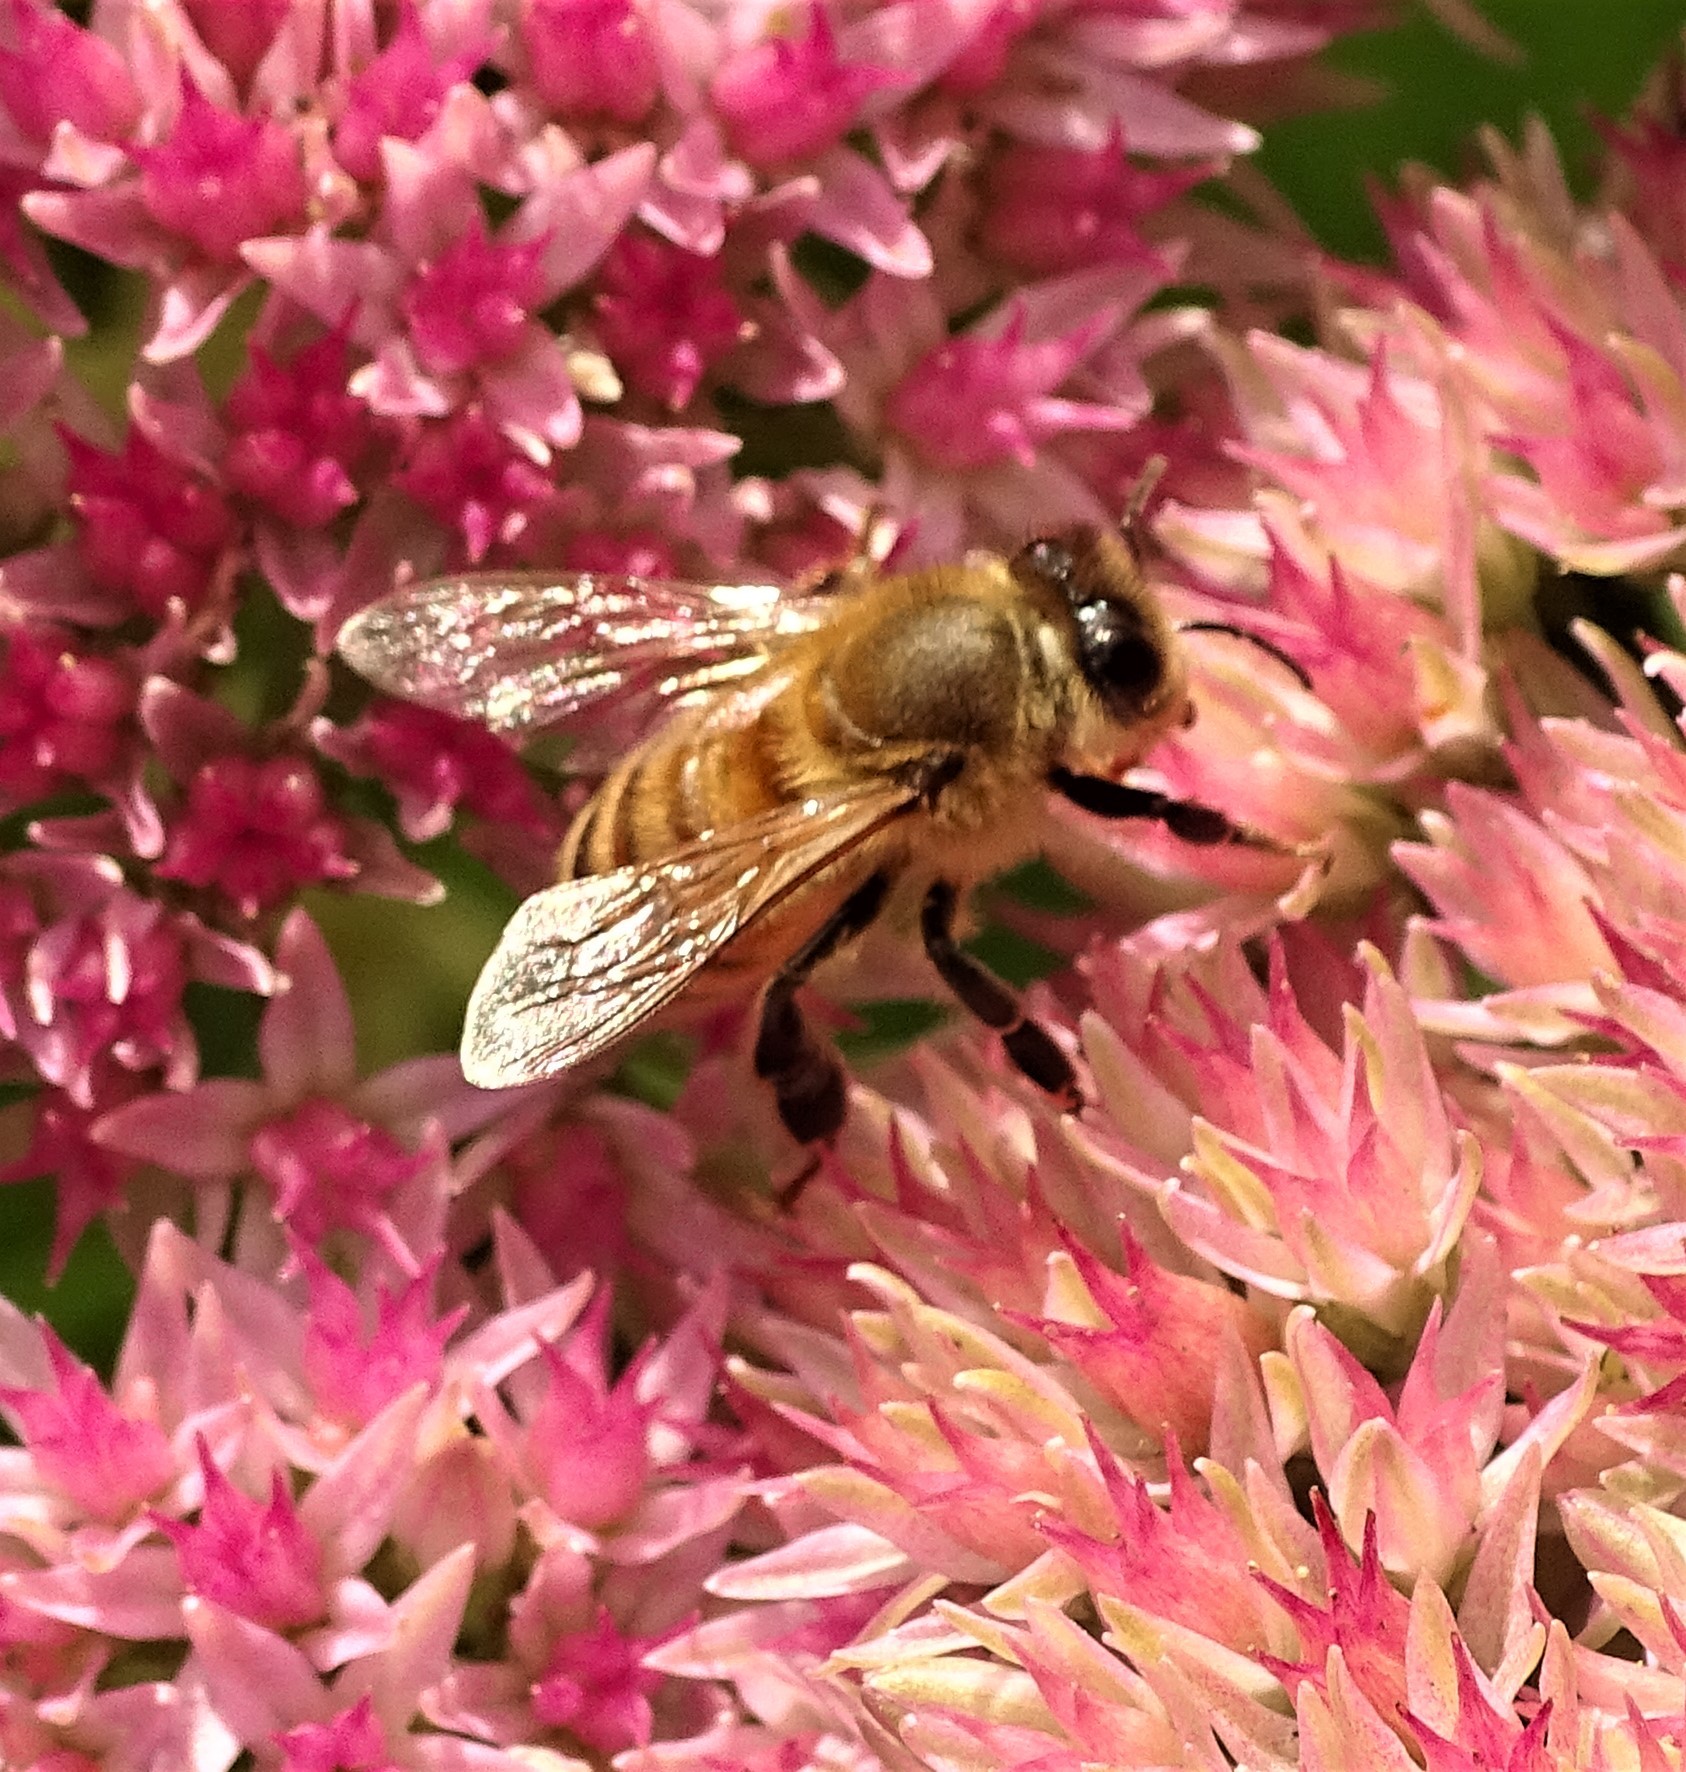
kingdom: Animalia
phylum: Arthropoda
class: Insecta
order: Hymenoptera
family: Apidae
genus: Apis
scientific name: Apis mellifera
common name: Honey bee
